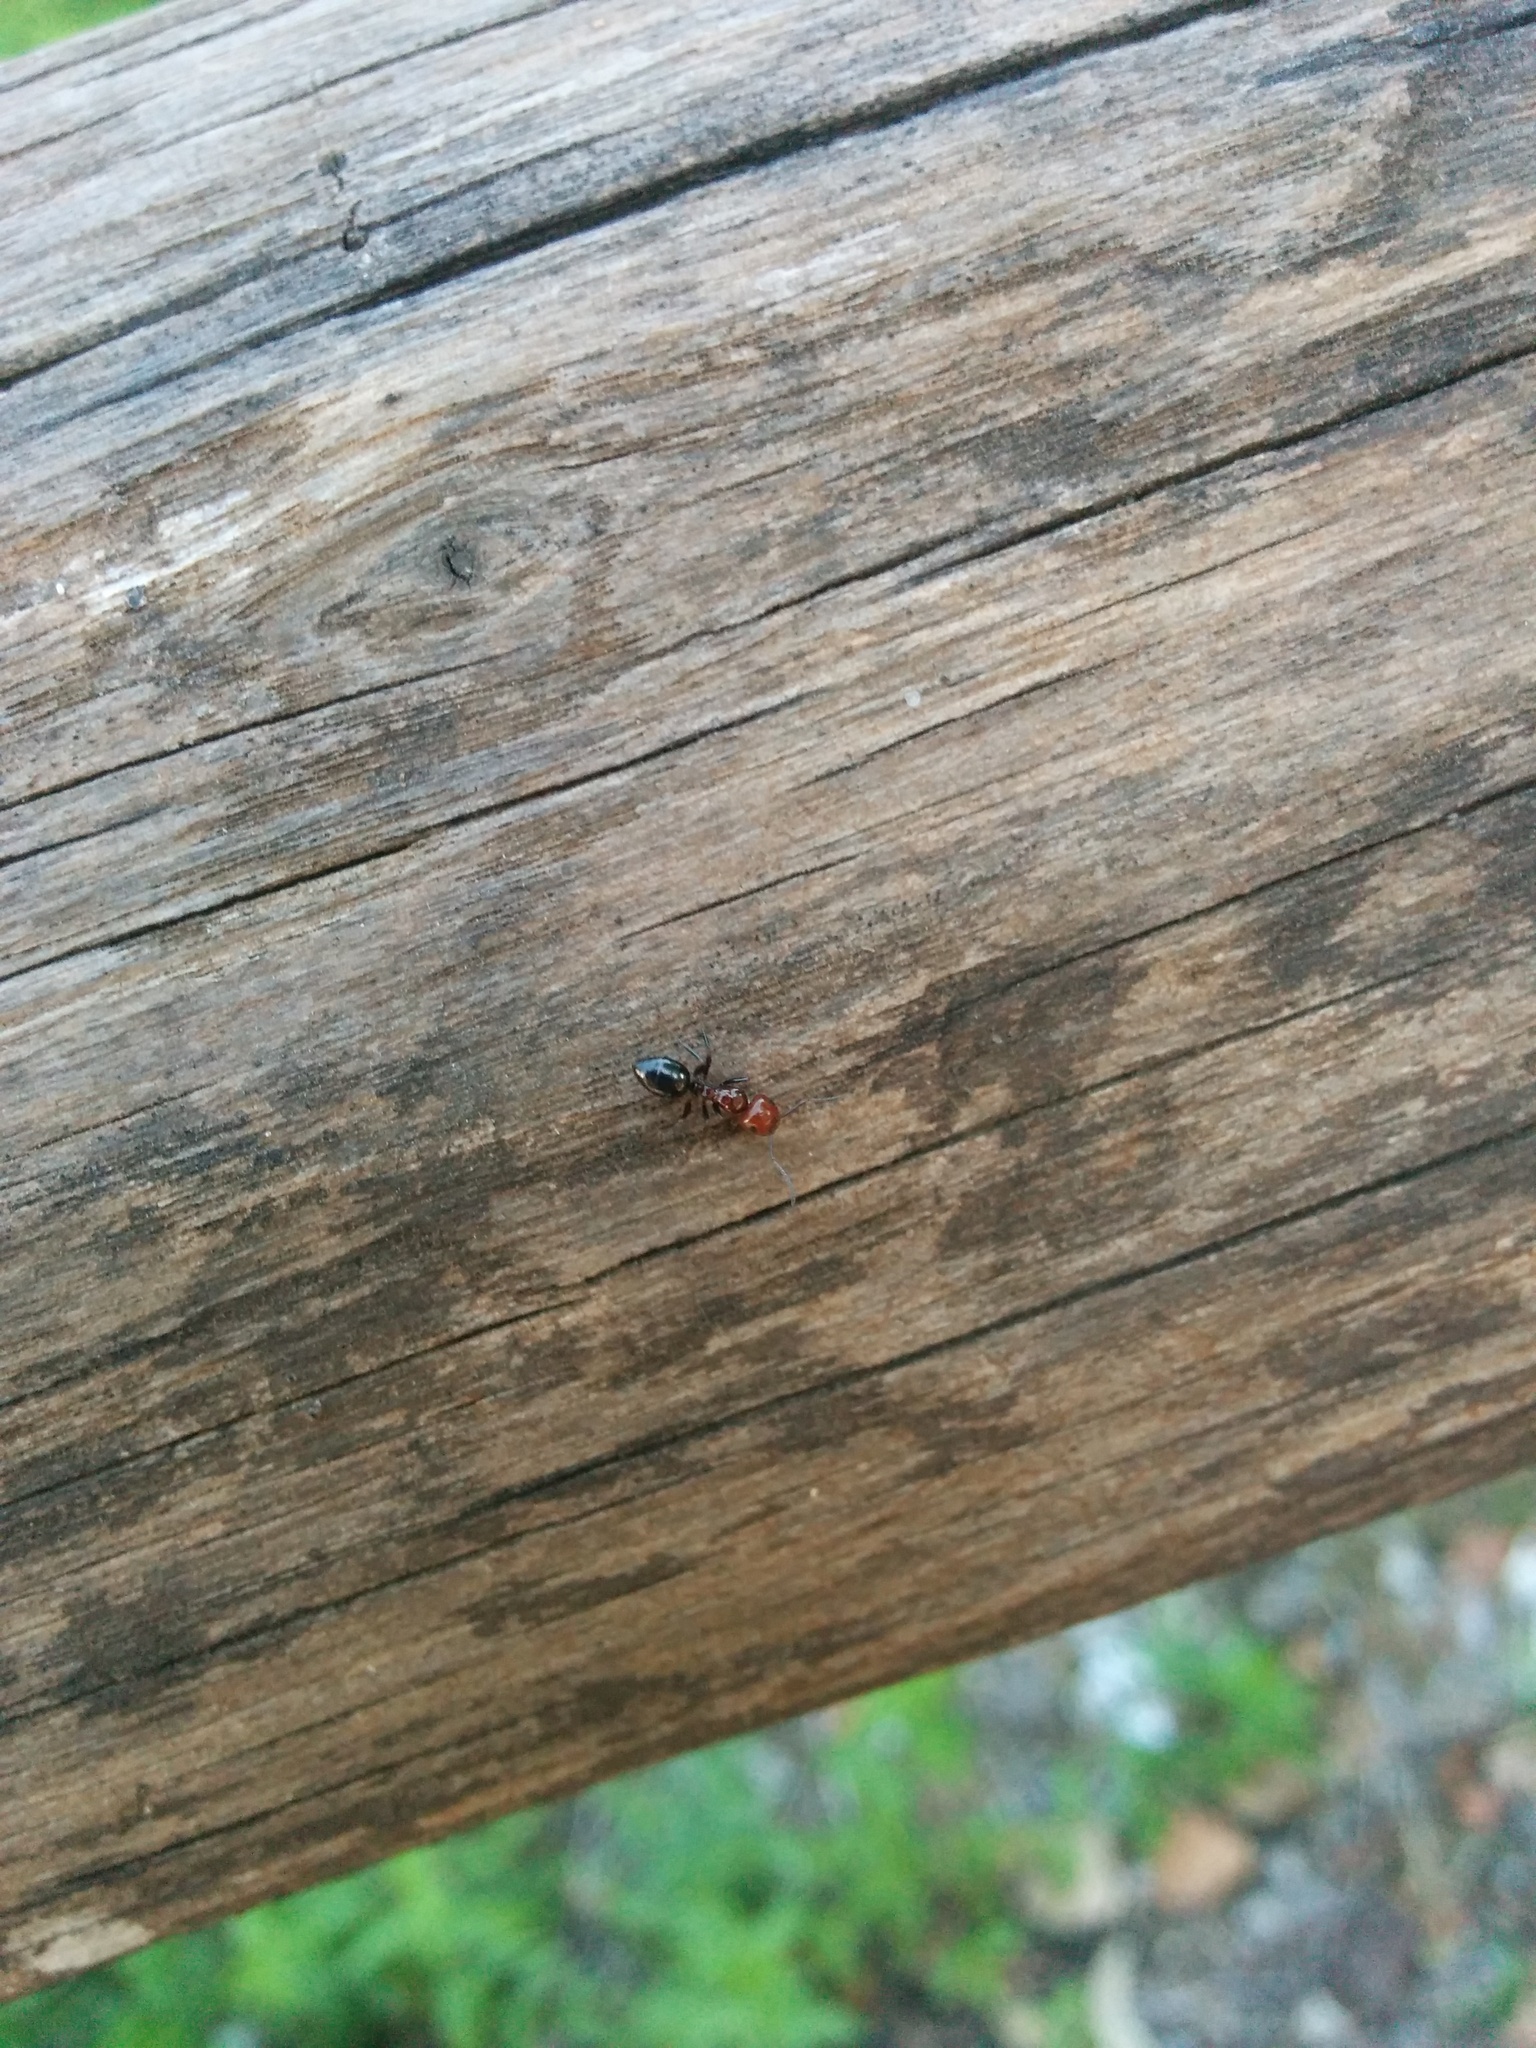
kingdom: Animalia
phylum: Arthropoda
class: Insecta
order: Hymenoptera
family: Formicidae
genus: Camponotus
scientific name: Camponotus lateralis
